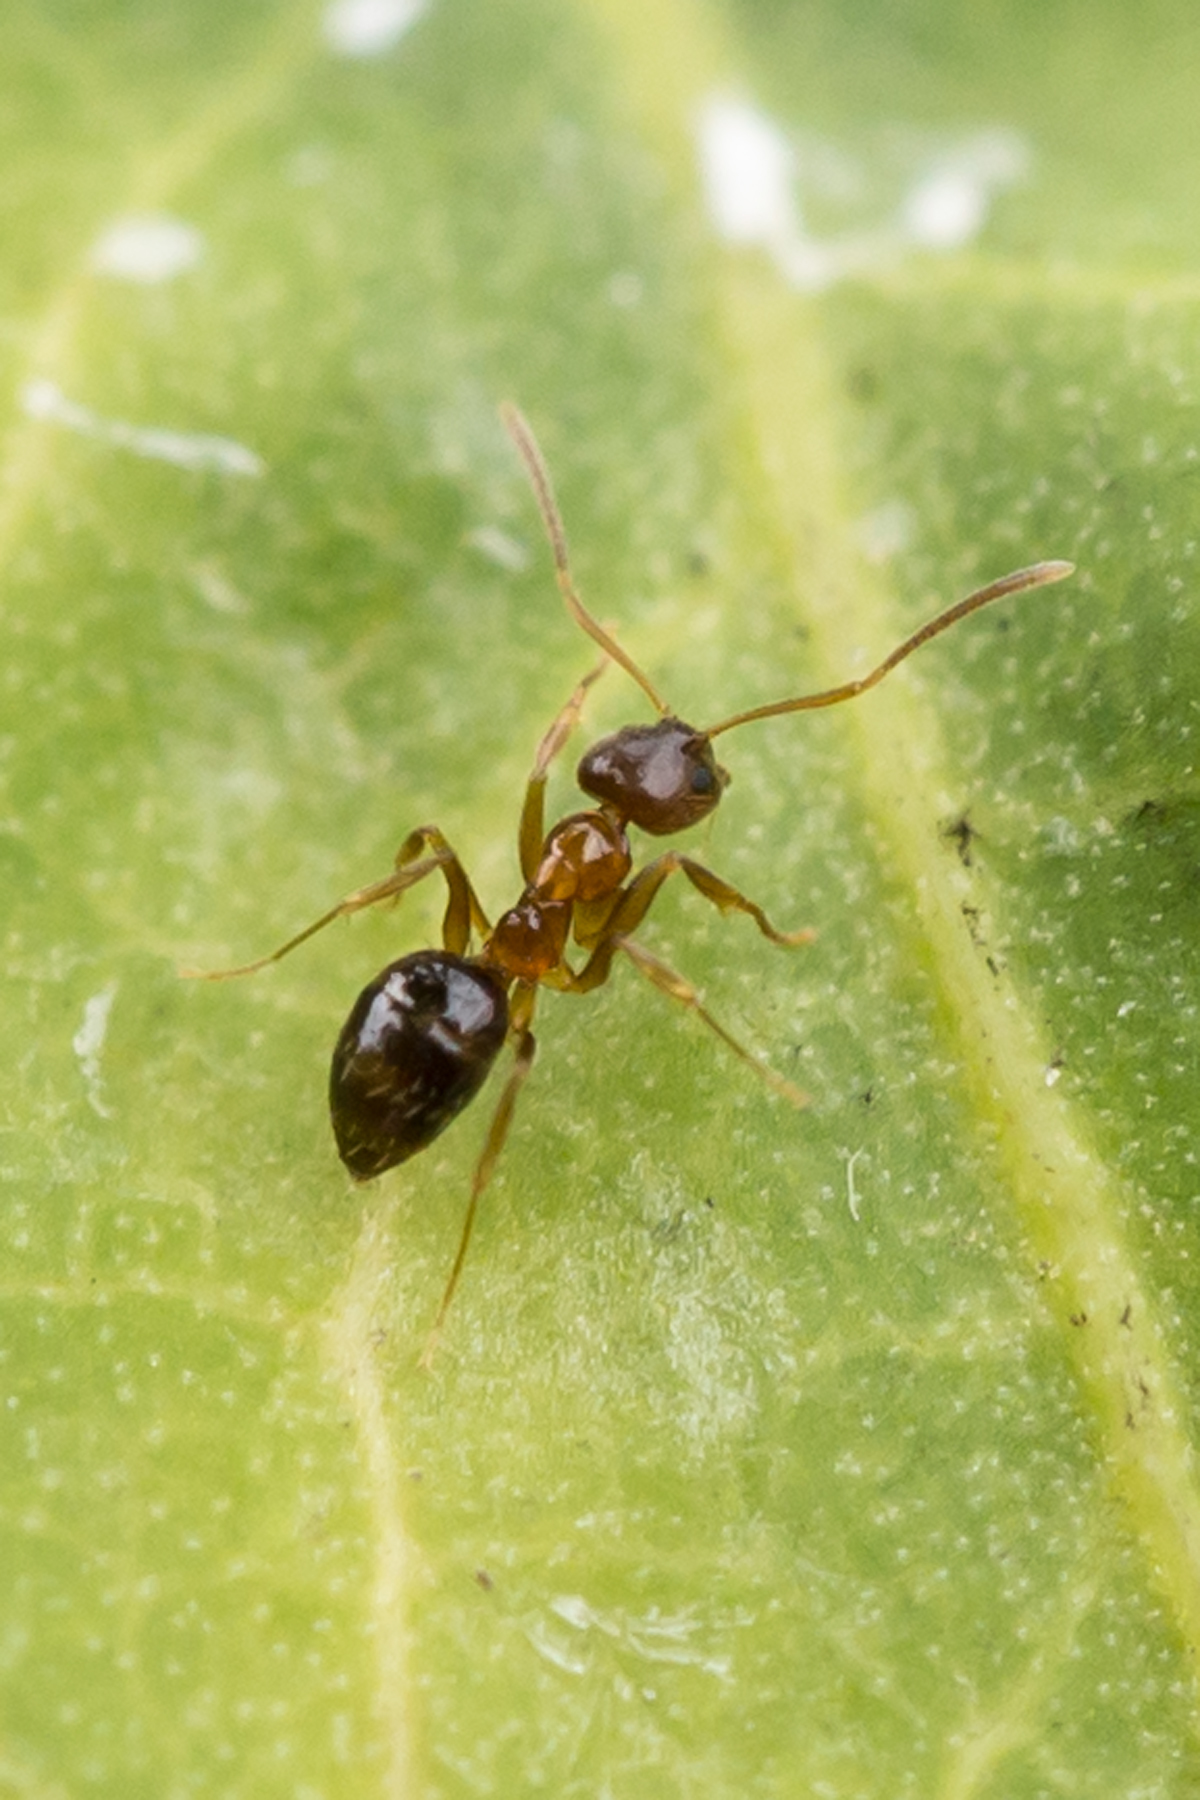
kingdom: Animalia
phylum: Arthropoda
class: Insecta
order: Hymenoptera
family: Formicidae
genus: Paratrechina
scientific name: Paratrechina flavipes
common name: Eastern asian formicine ant
